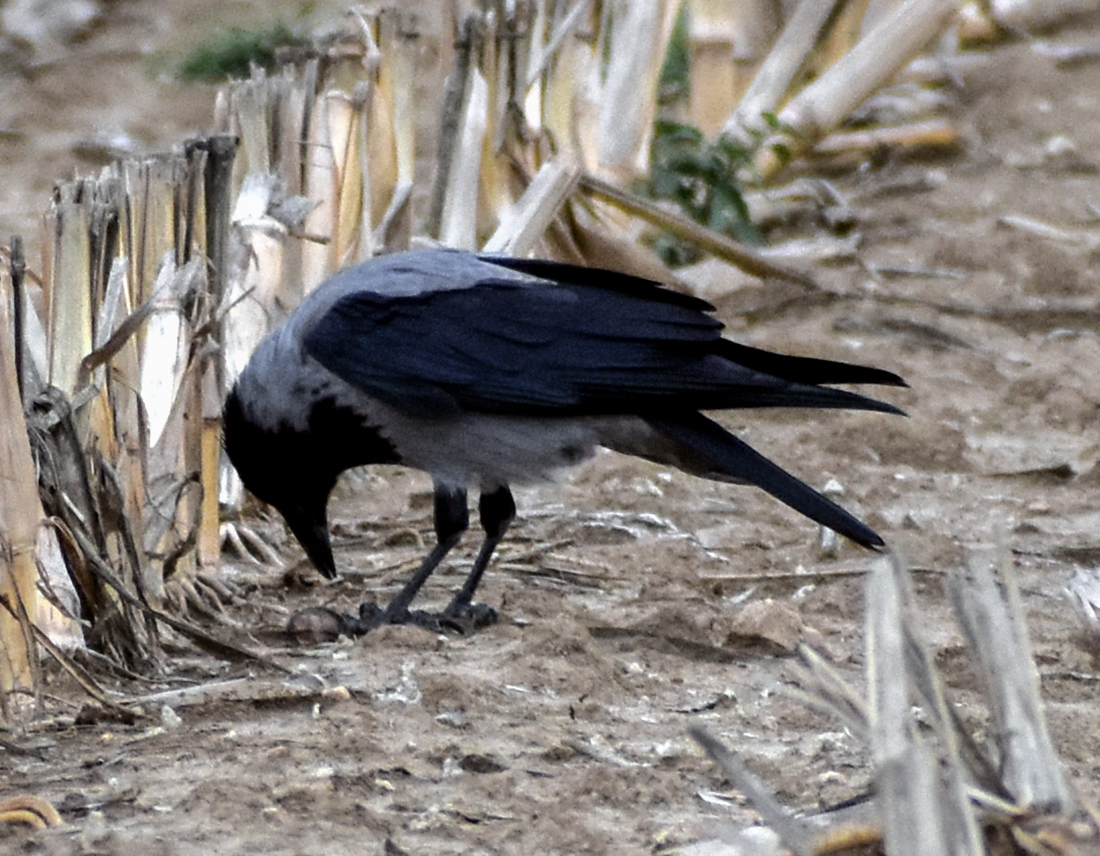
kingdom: Animalia
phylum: Chordata
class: Aves
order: Passeriformes
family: Corvidae
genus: Corvus
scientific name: Corvus cornix
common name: Hooded crow
